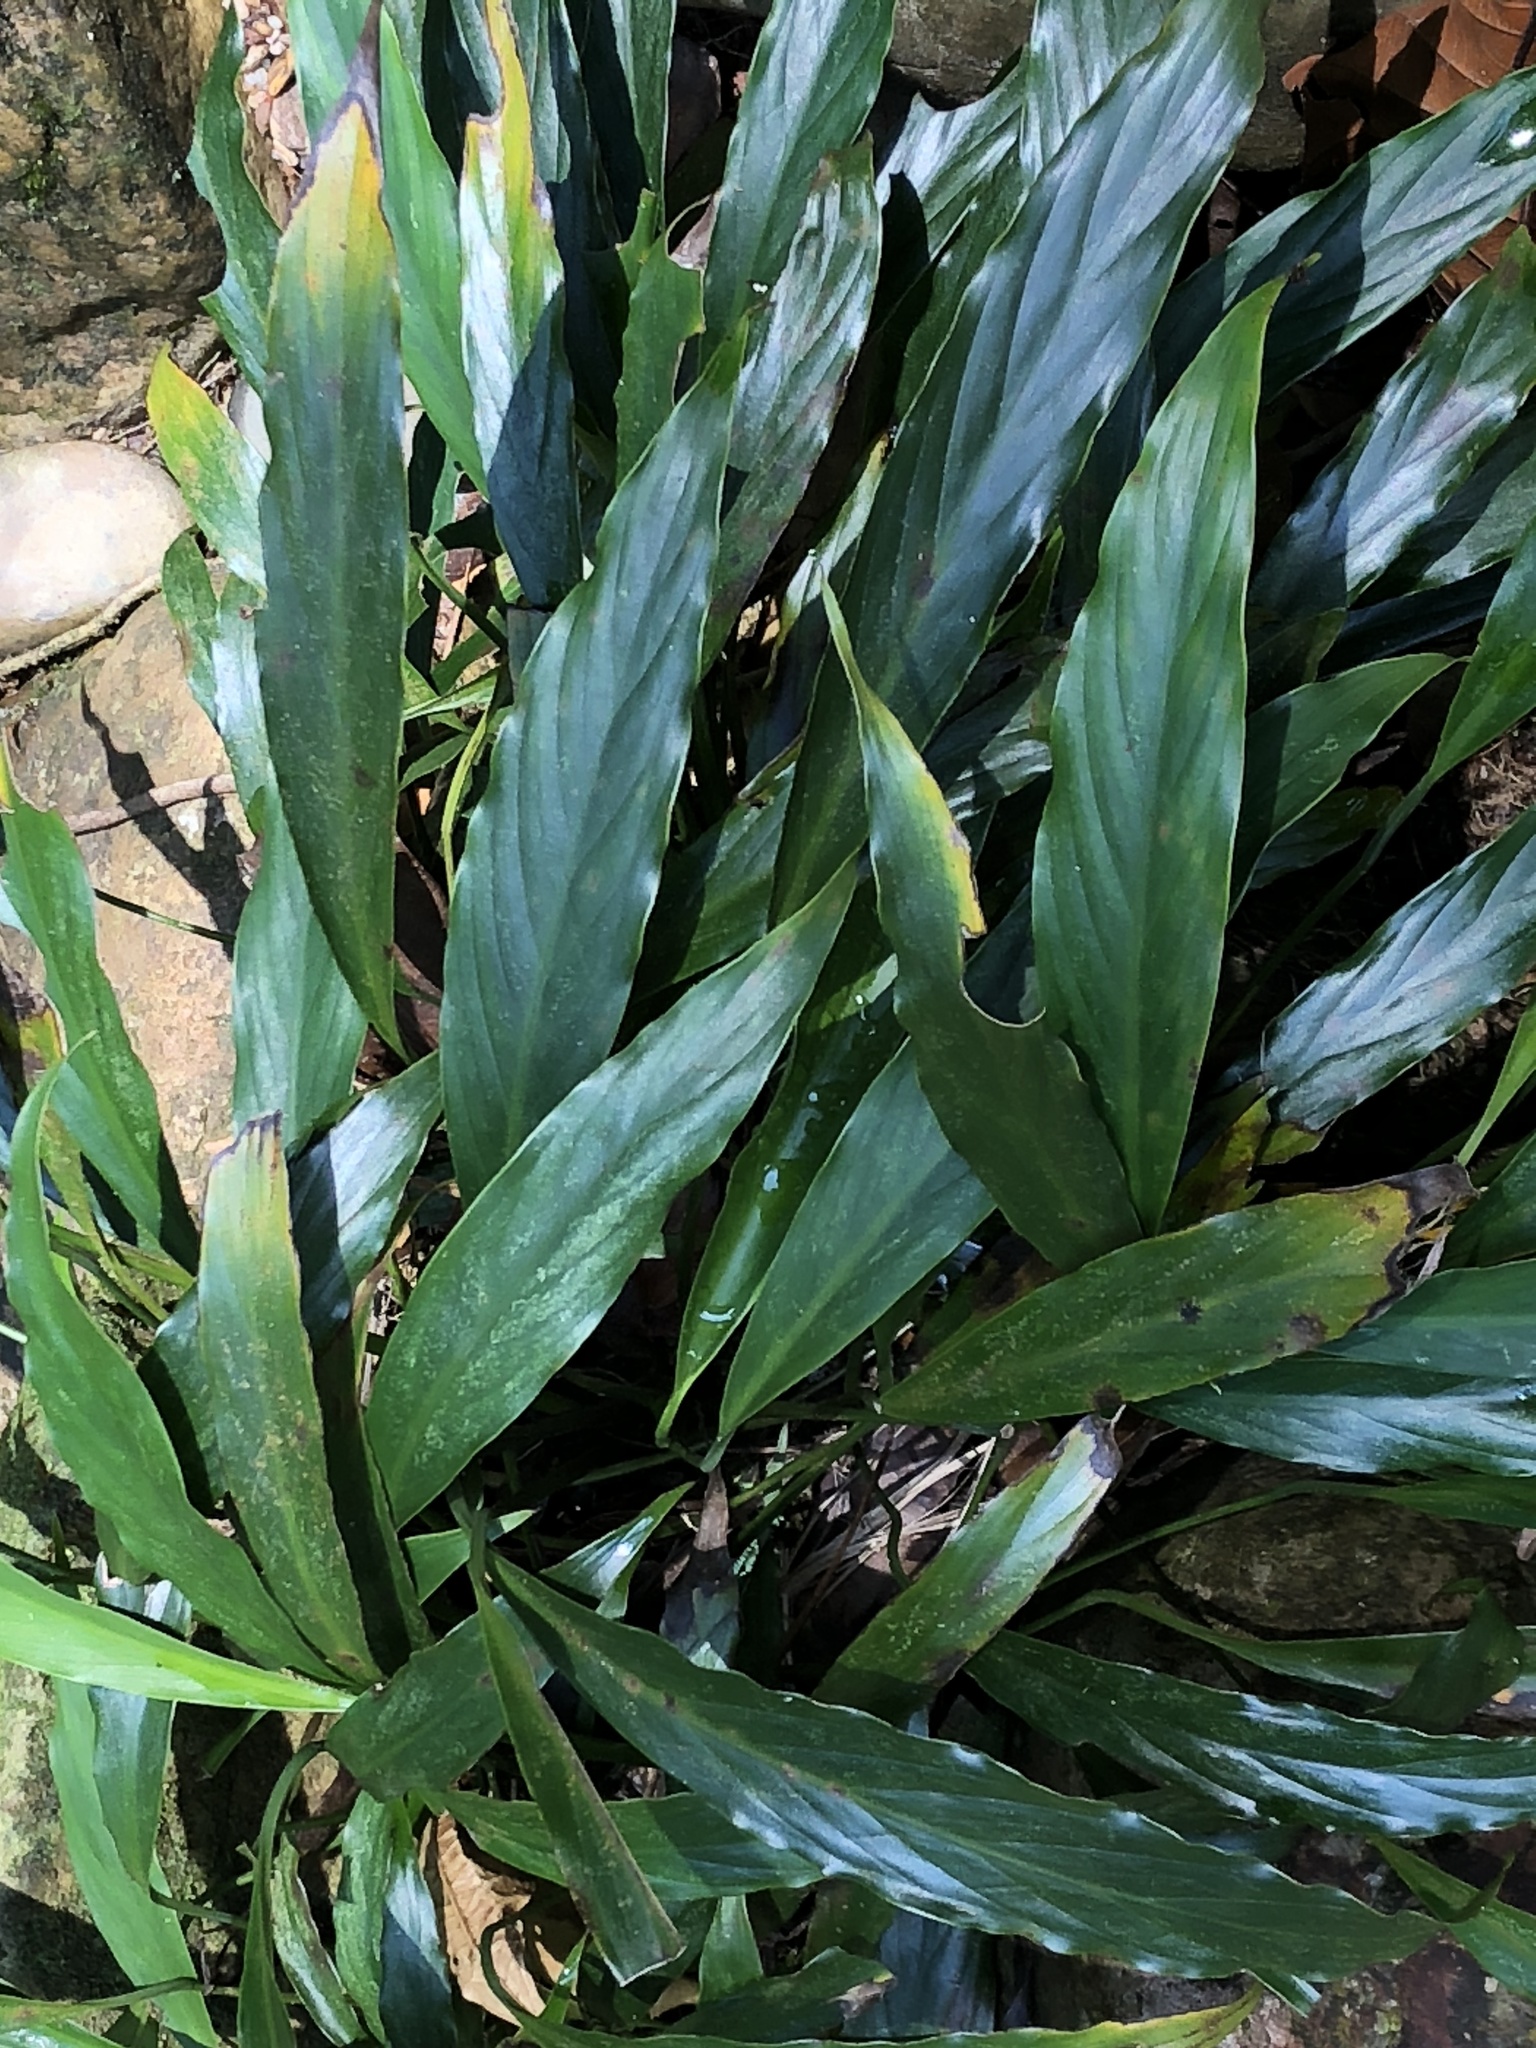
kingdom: Plantae
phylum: Tracheophyta
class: Liliopsida
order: Alismatales
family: Araceae
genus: Spathiphyllum
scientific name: Spathiphyllum lechlerianum
